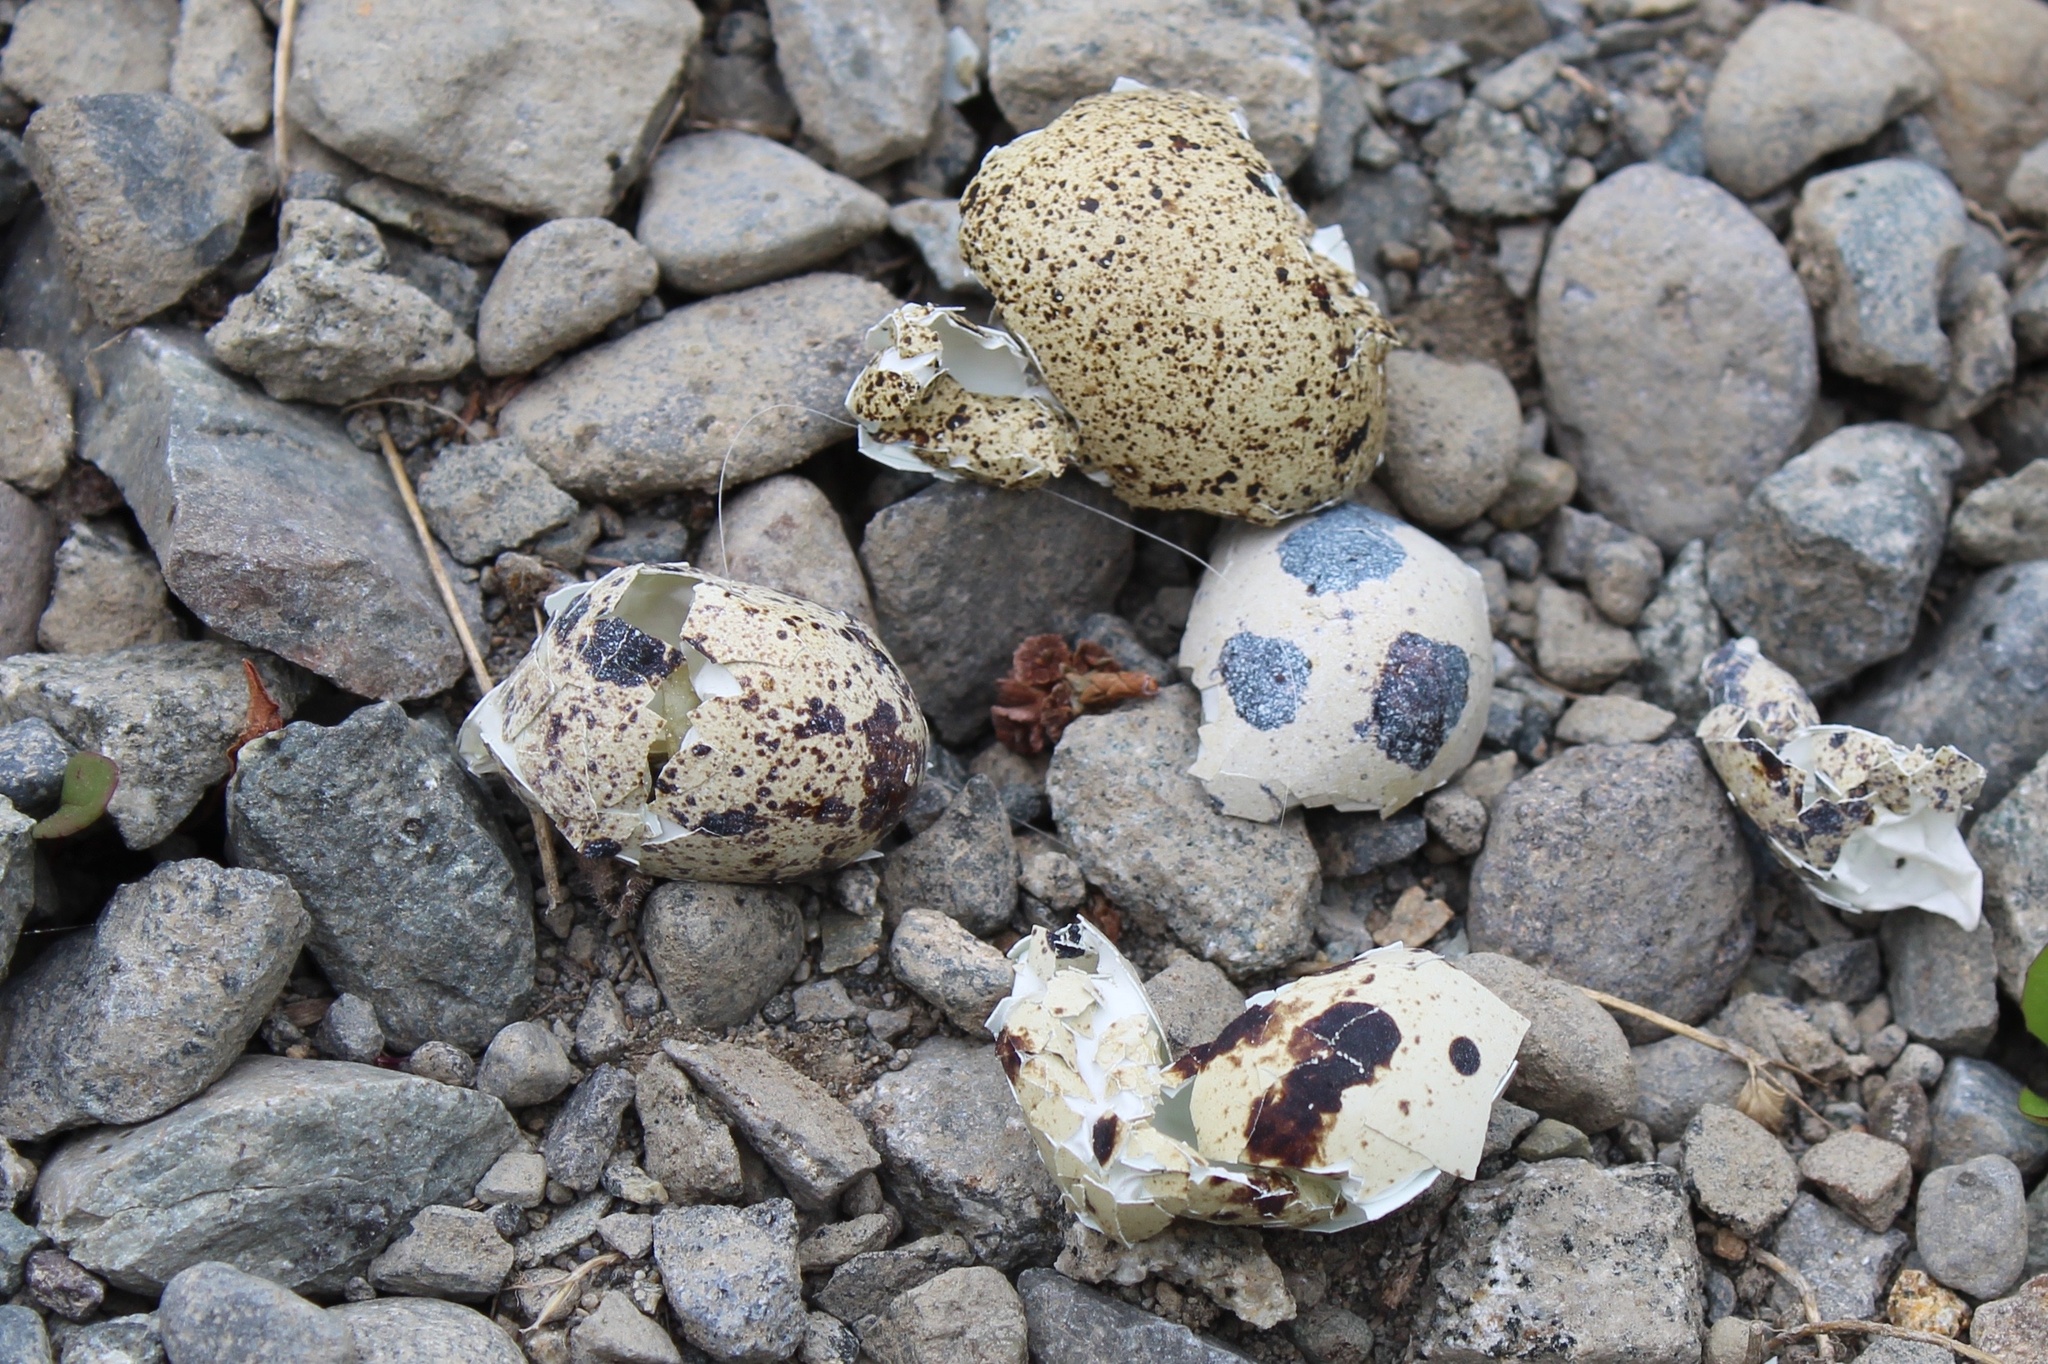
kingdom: Animalia
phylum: Chordata
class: Aves
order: Galliformes
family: Phasianidae
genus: Coturnix
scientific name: Coturnix japonica
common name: Japanese quail
